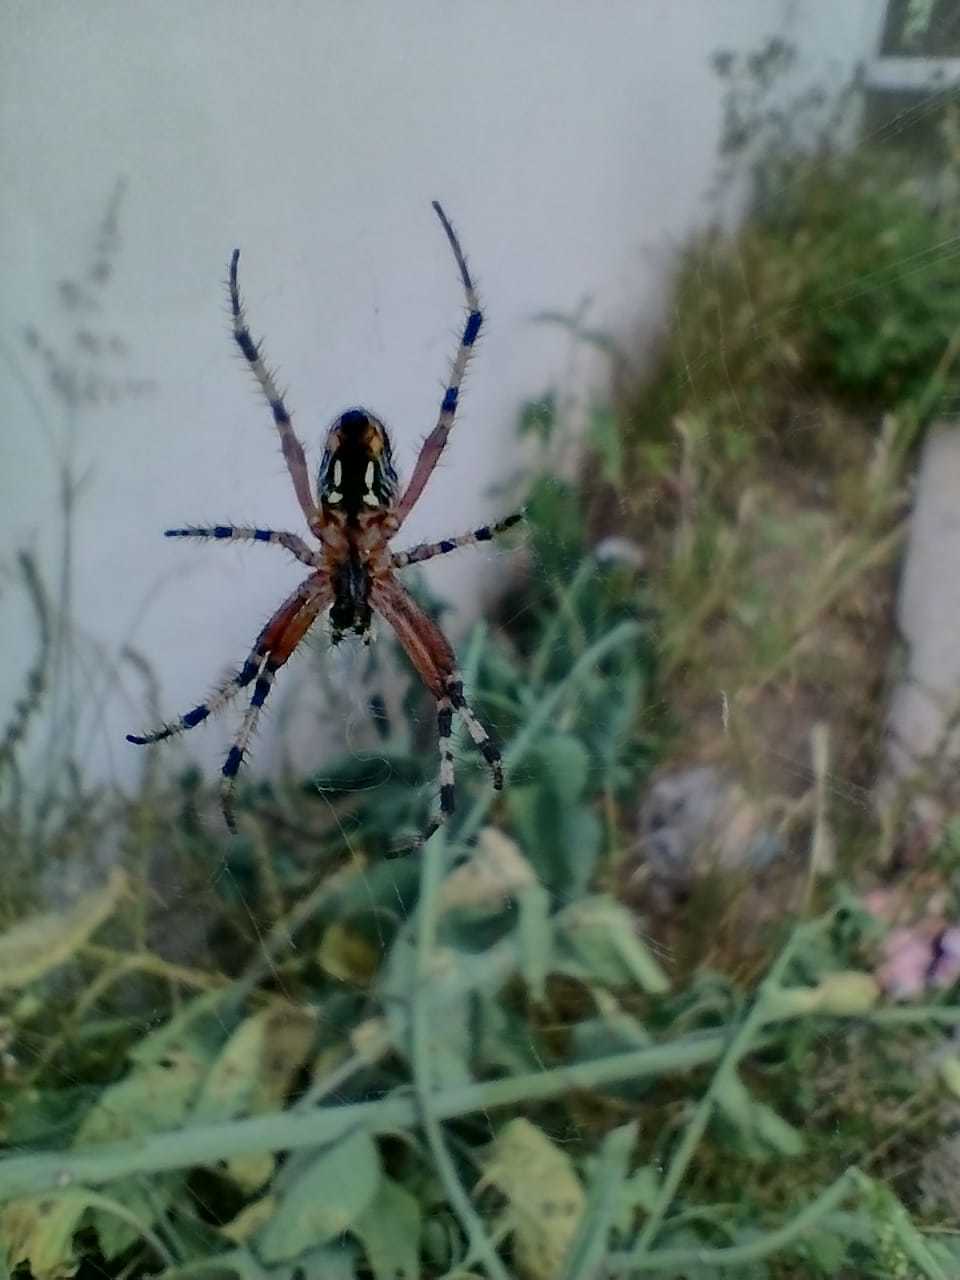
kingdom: Animalia
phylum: Arthropoda
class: Arachnida
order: Araneae
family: Araneidae
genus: Neoscona
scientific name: Neoscona oaxacensis
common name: Orb weavers
